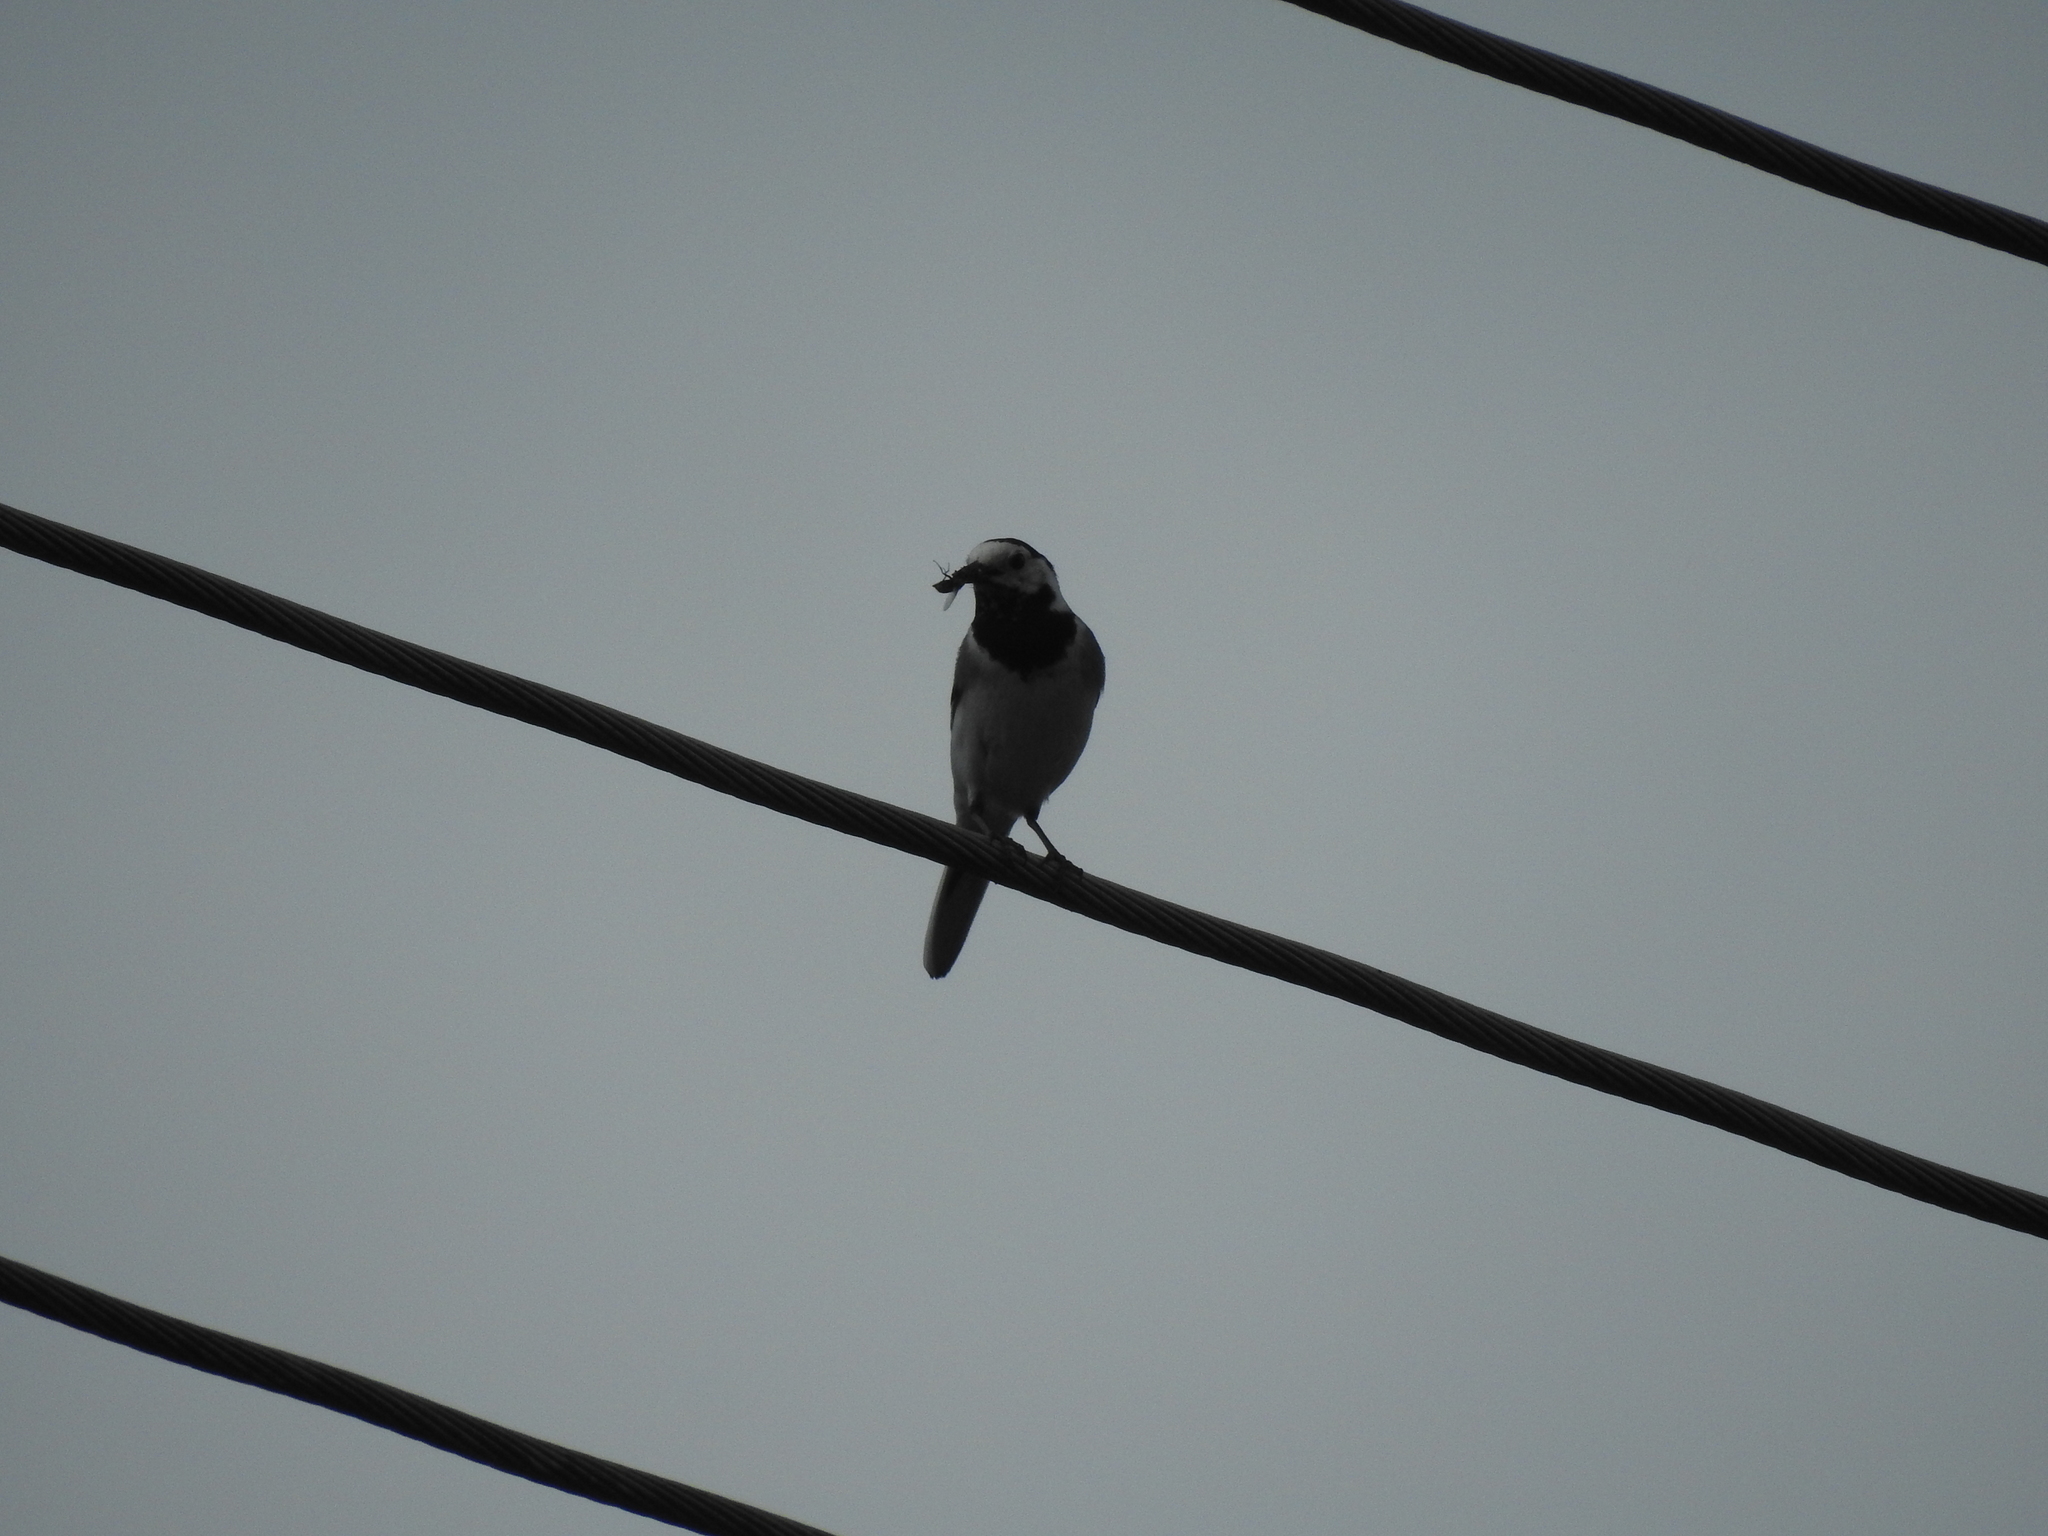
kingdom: Animalia
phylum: Chordata
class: Aves
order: Passeriformes
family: Motacillidae
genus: Motacilla
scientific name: Motacilla alba
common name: White wagtail
